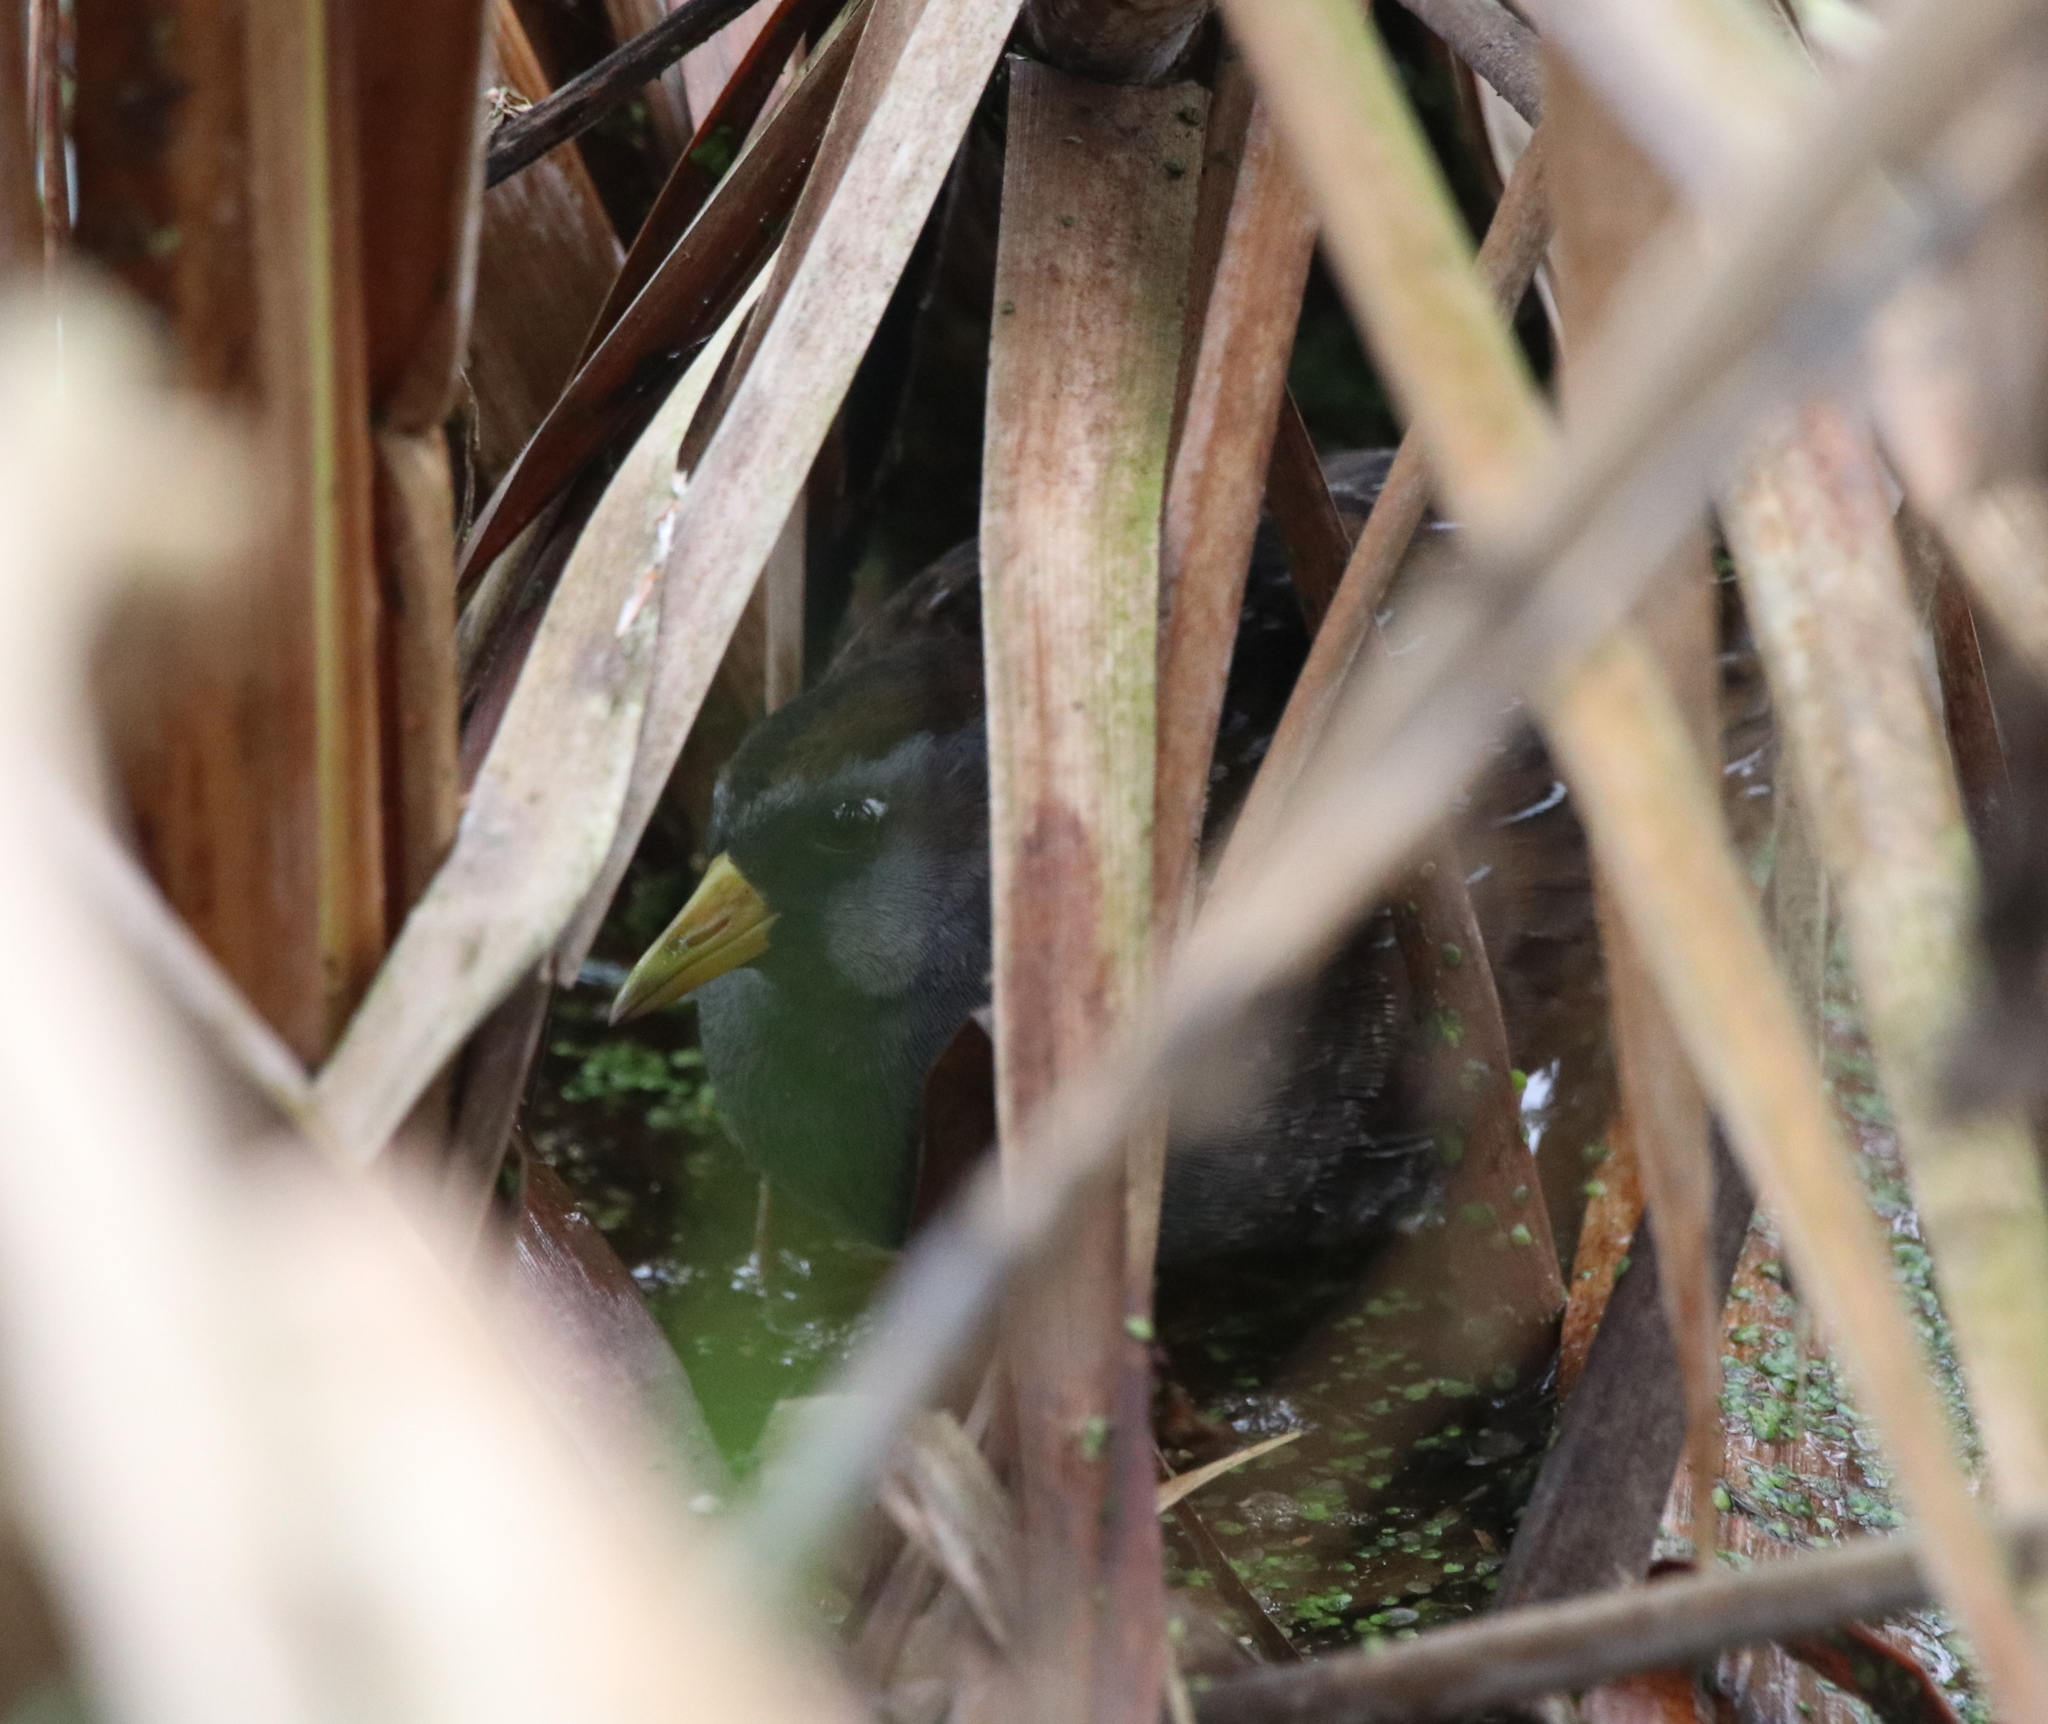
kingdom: Animalia
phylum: Chordata
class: Aves
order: Gruiformes
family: Rallidae
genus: Porzana
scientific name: Porzana carolina
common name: Sora
